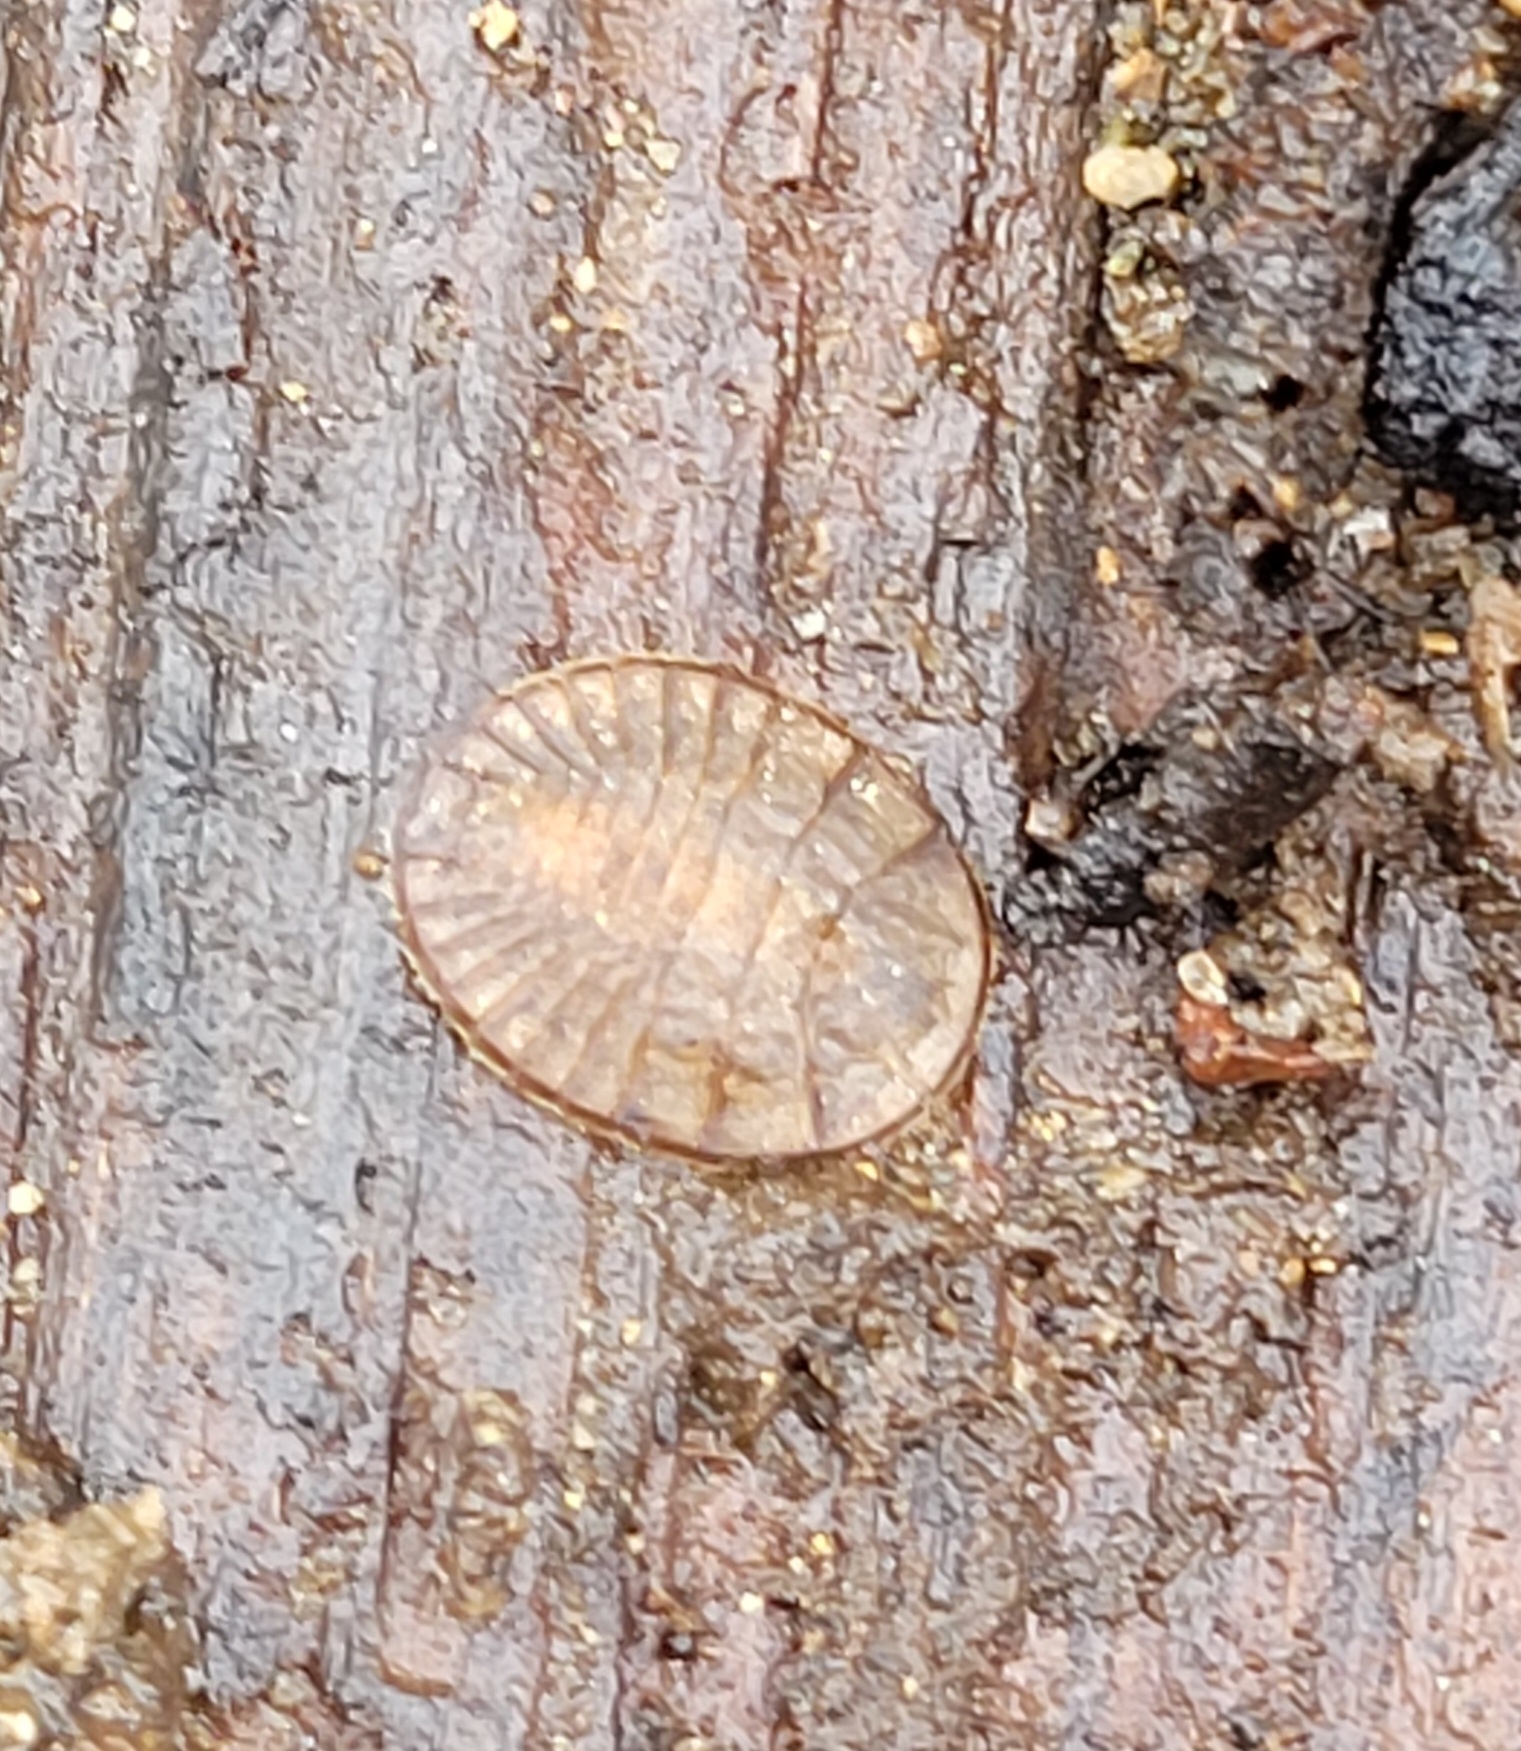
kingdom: Animalia
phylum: Arthropoda
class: Insecta
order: Coleoptera
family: Psephenidae
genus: Psephenus
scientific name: Psephenus herricki
